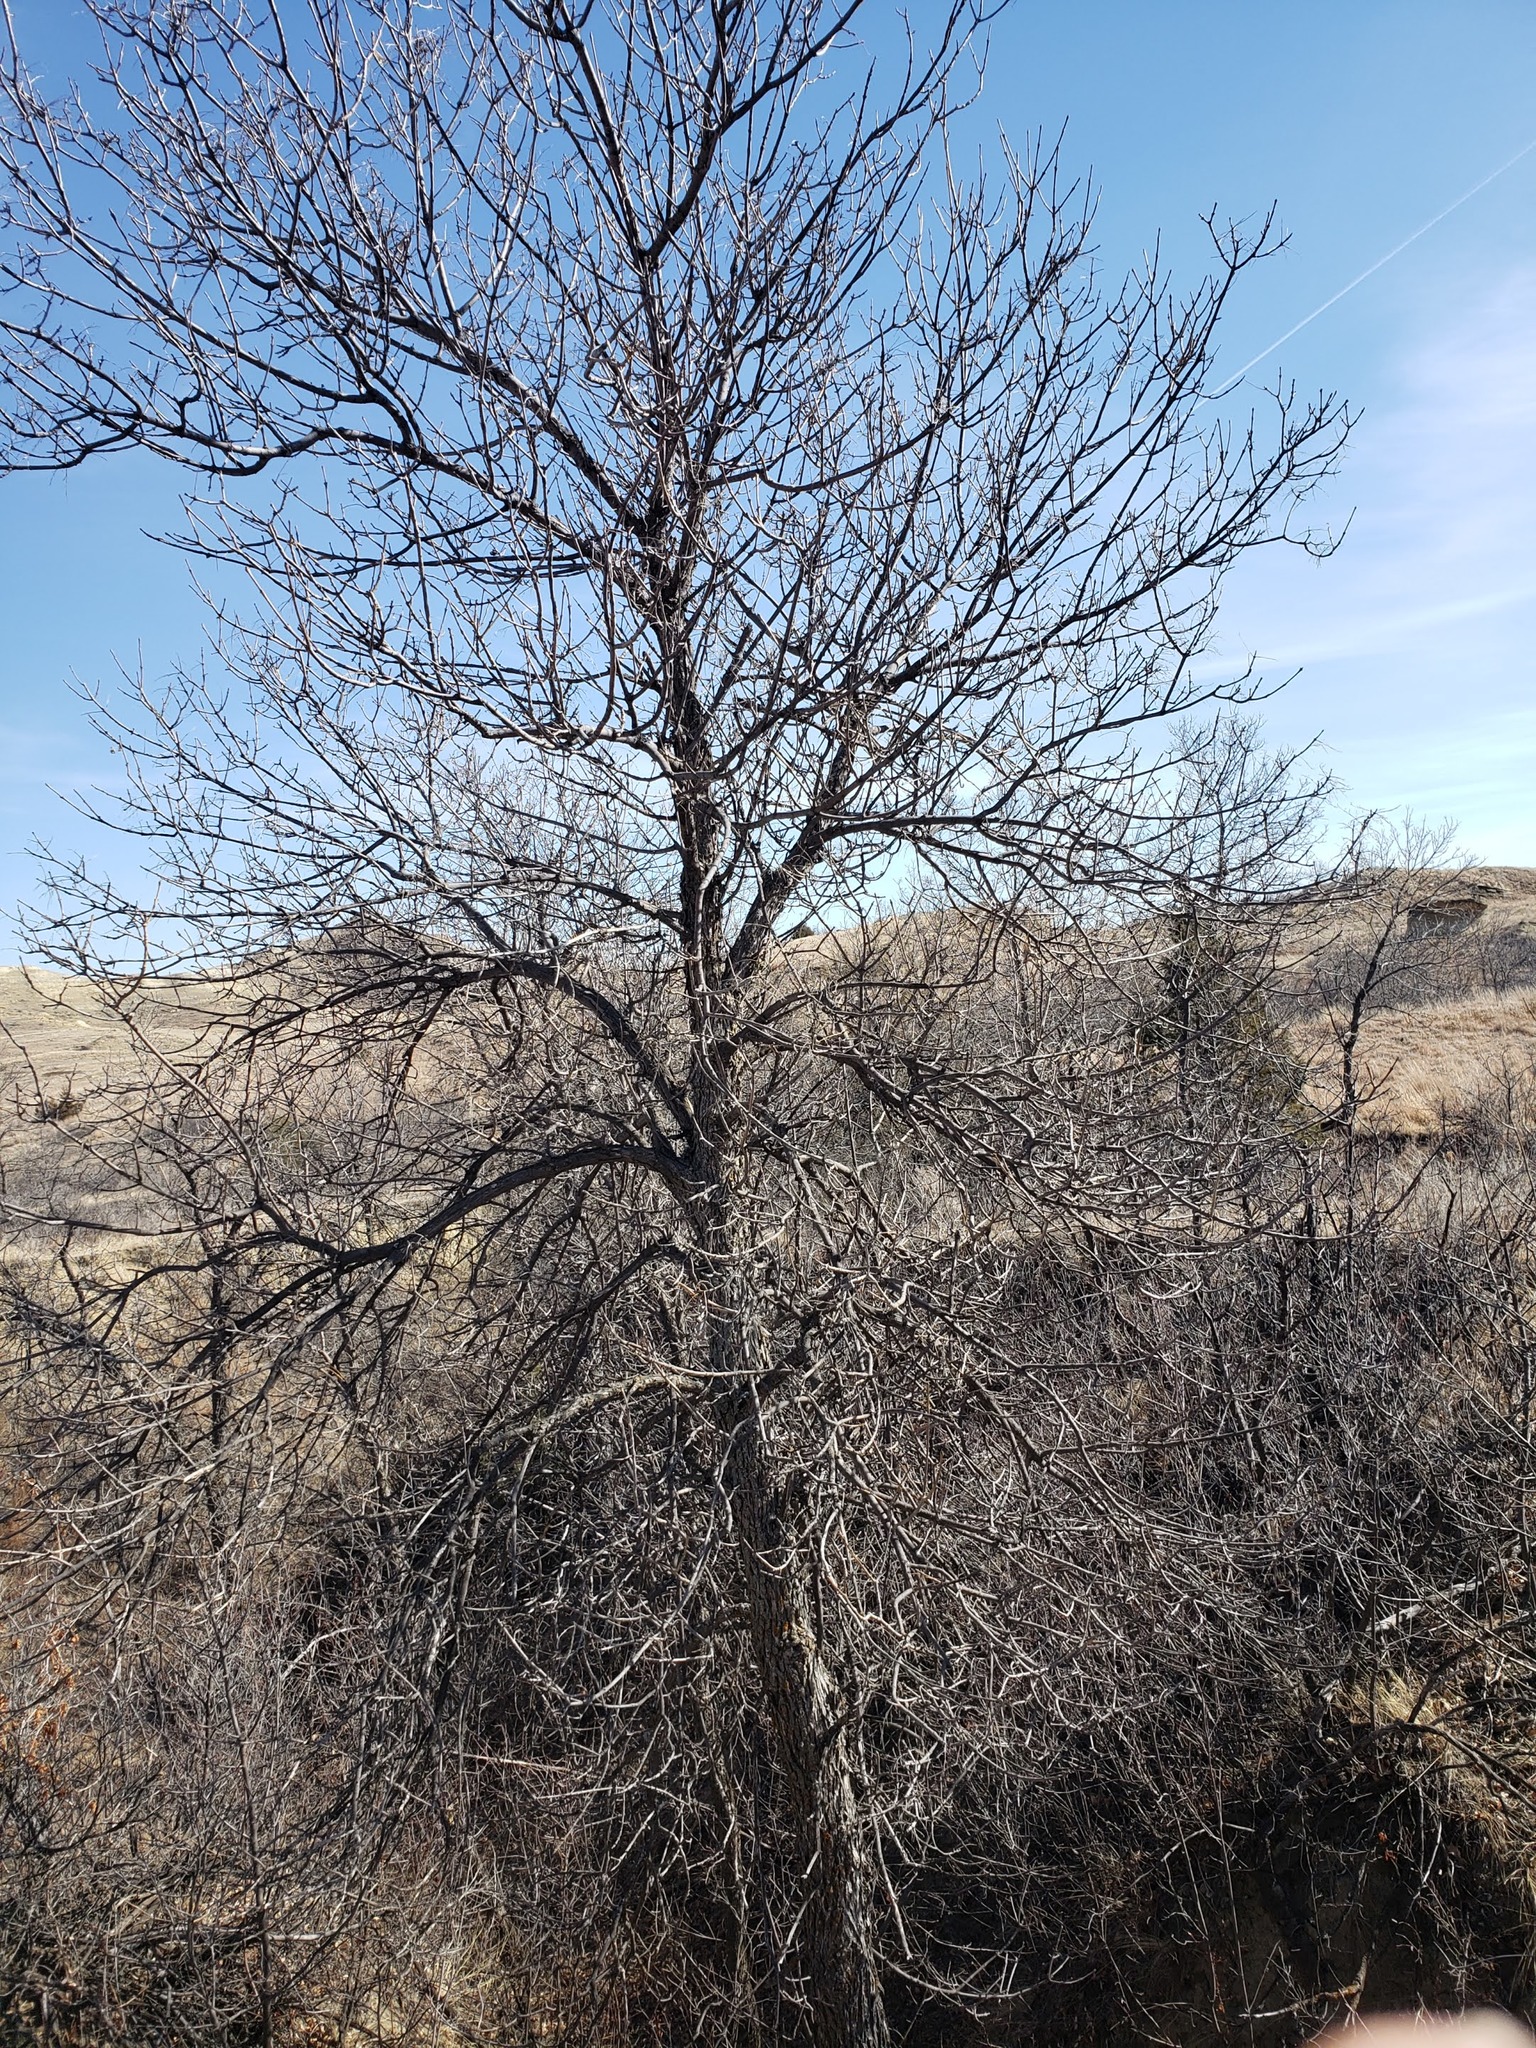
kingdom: Plantae
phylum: Tracheophyta
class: Magnoliopsida
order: Lamiales
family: Oleaceae
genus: Fraxinus
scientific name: Fraxinus pennsylvanica
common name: Green ash
